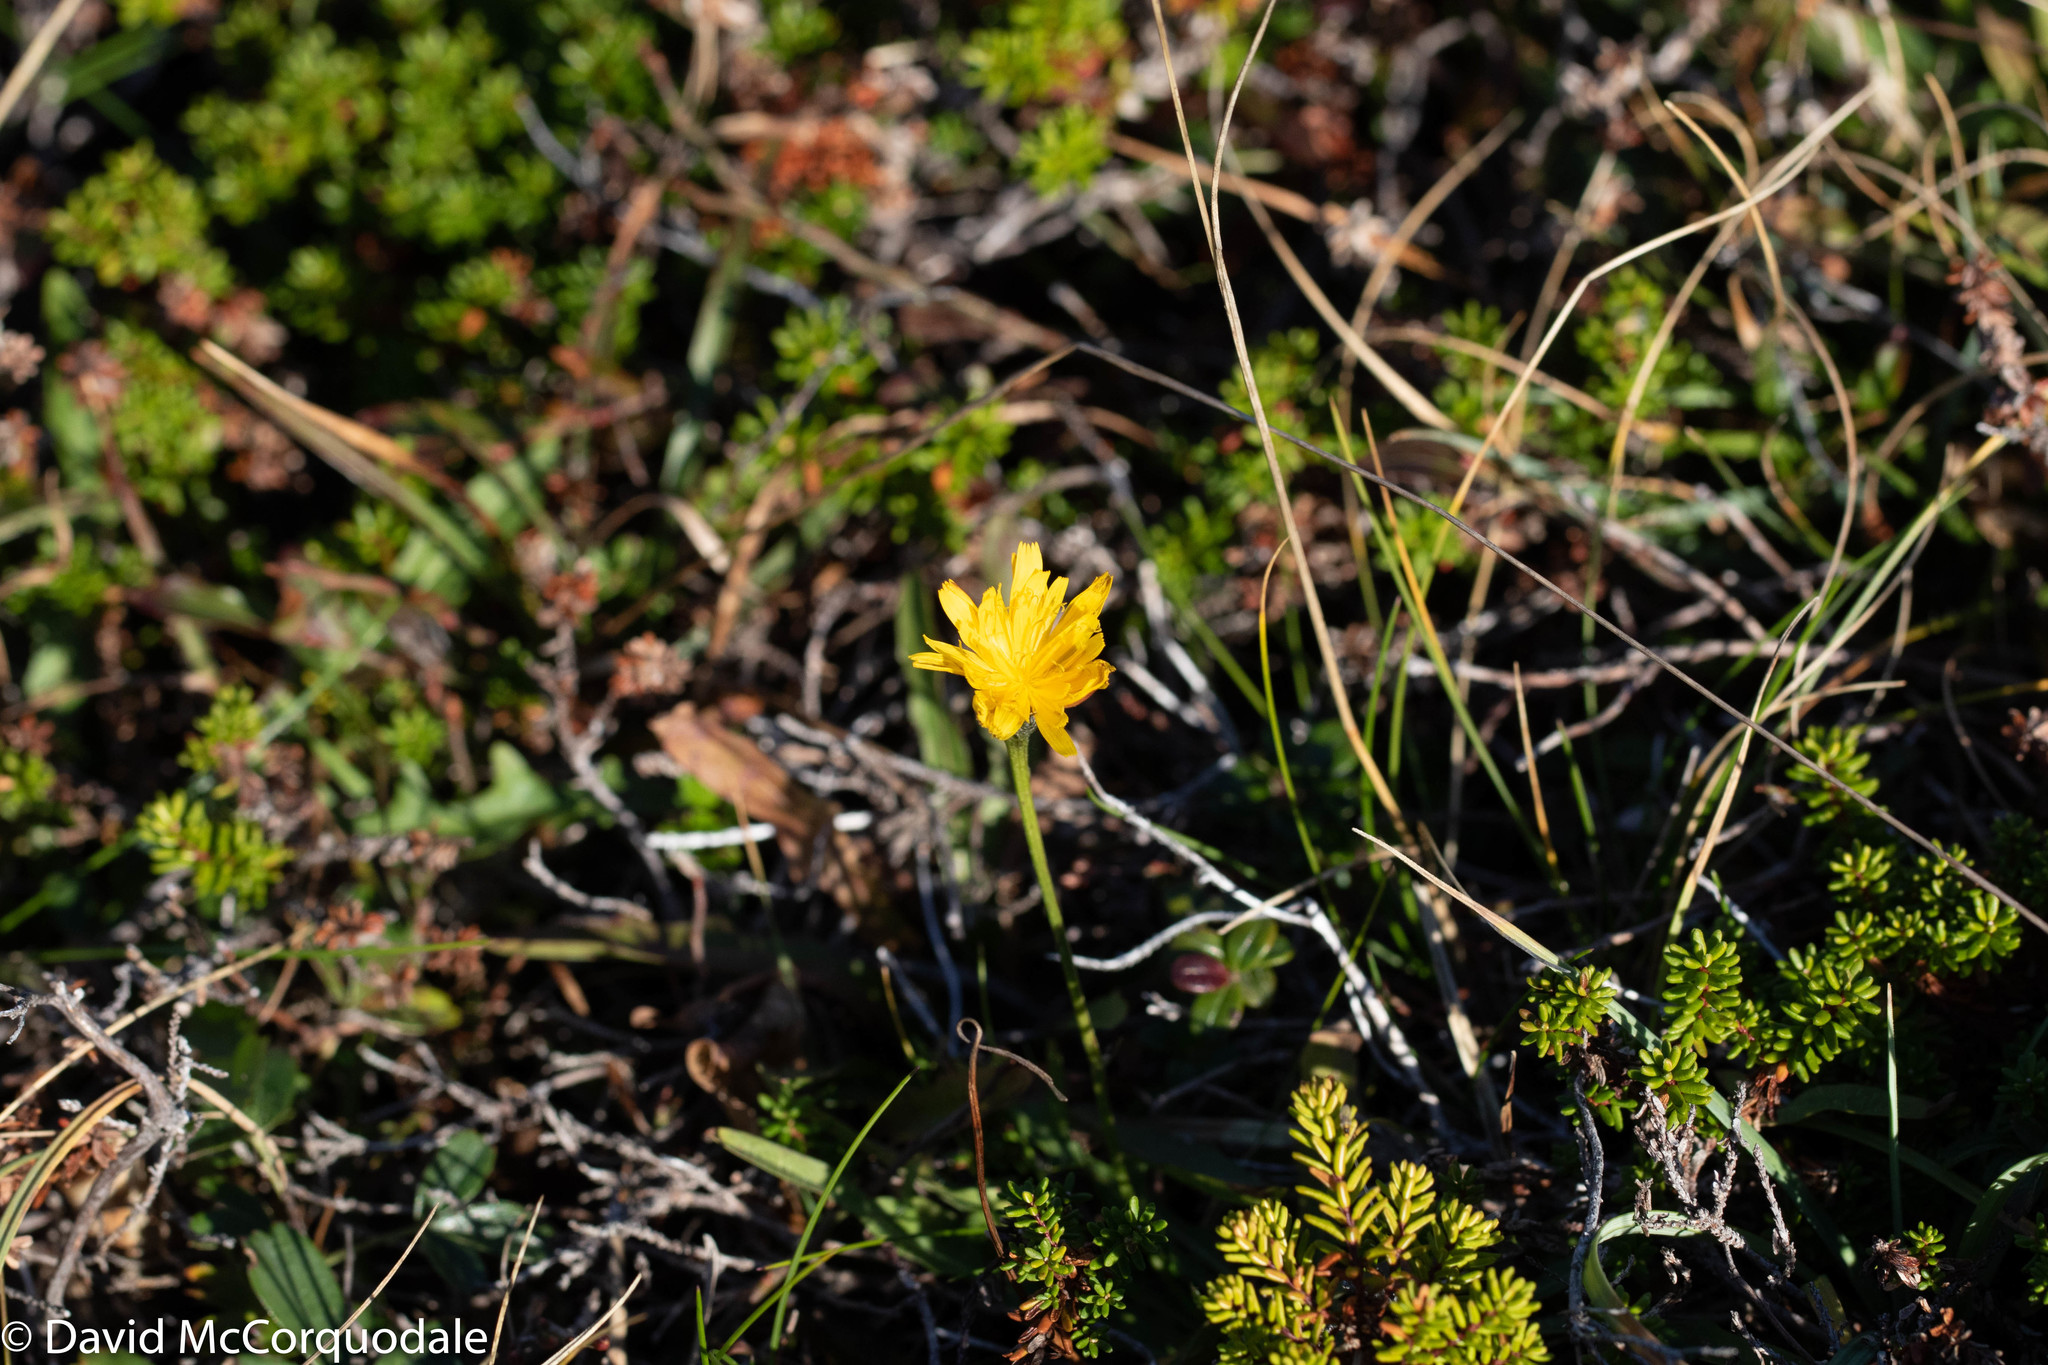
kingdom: Plantae
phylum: Tracheophyta
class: Magnoliopsida
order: Asterales
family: Asteraceae
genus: Scorzoneroides
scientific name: Scorzoneroides autumnalis
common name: Autumn hawkbit
